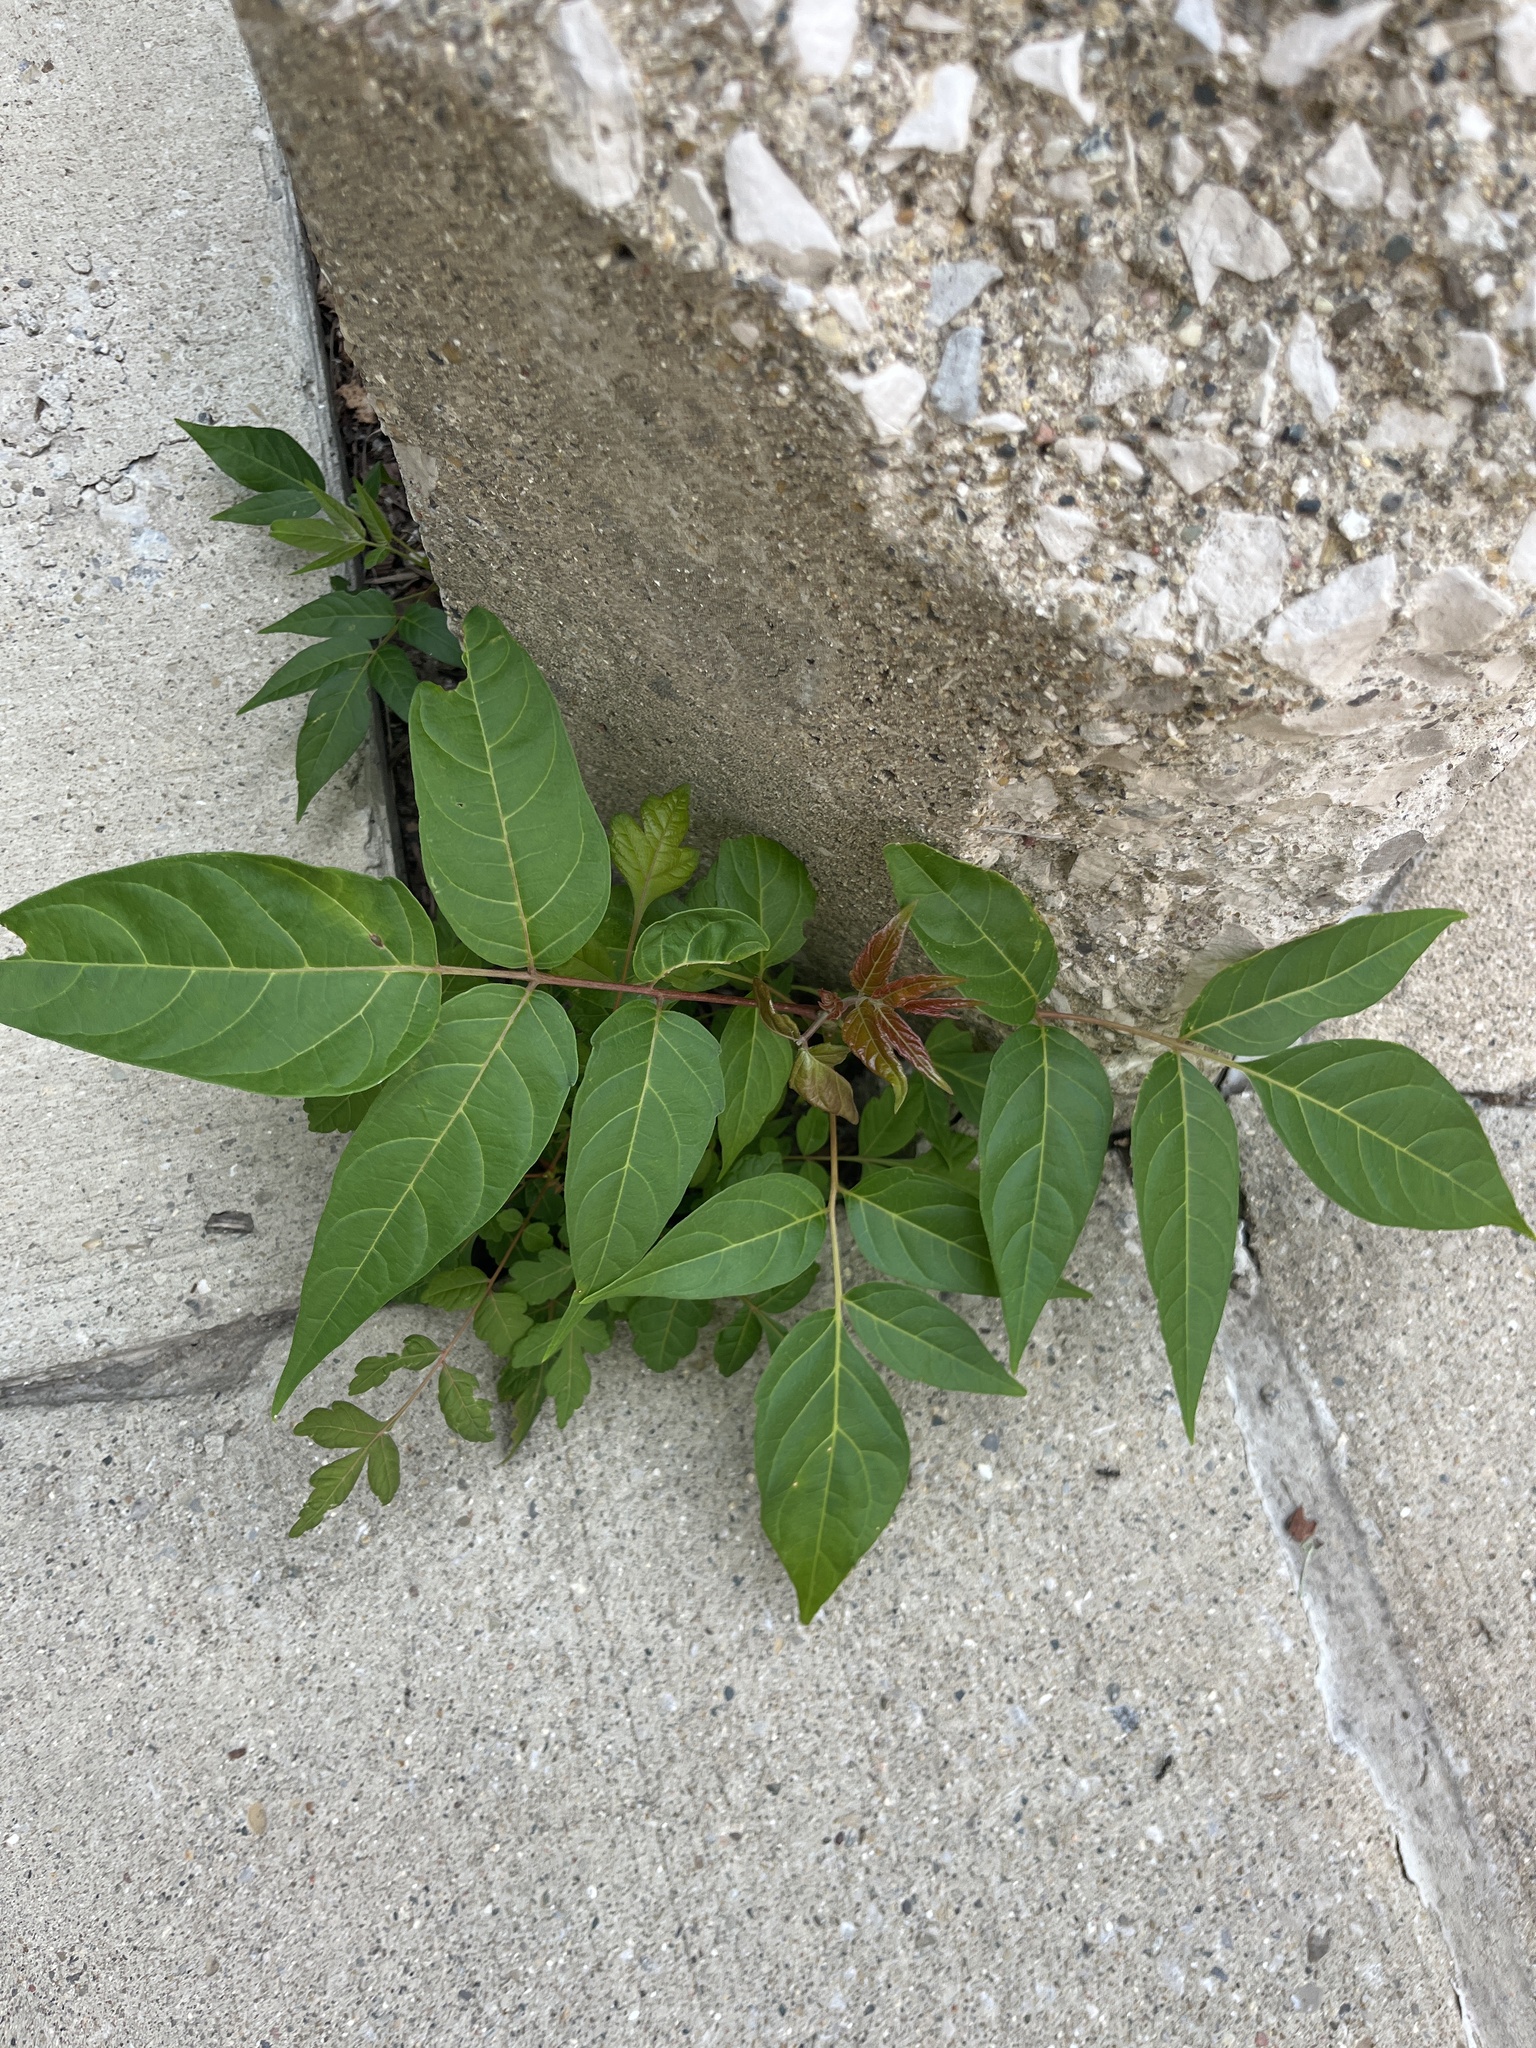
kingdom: Plantae
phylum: Tracheophyta
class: Magnoliopsida
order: Sapindales
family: Simaroubaceae
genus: Ailanthus
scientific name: Ailanthus altissima
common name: Tree-of-heaven
